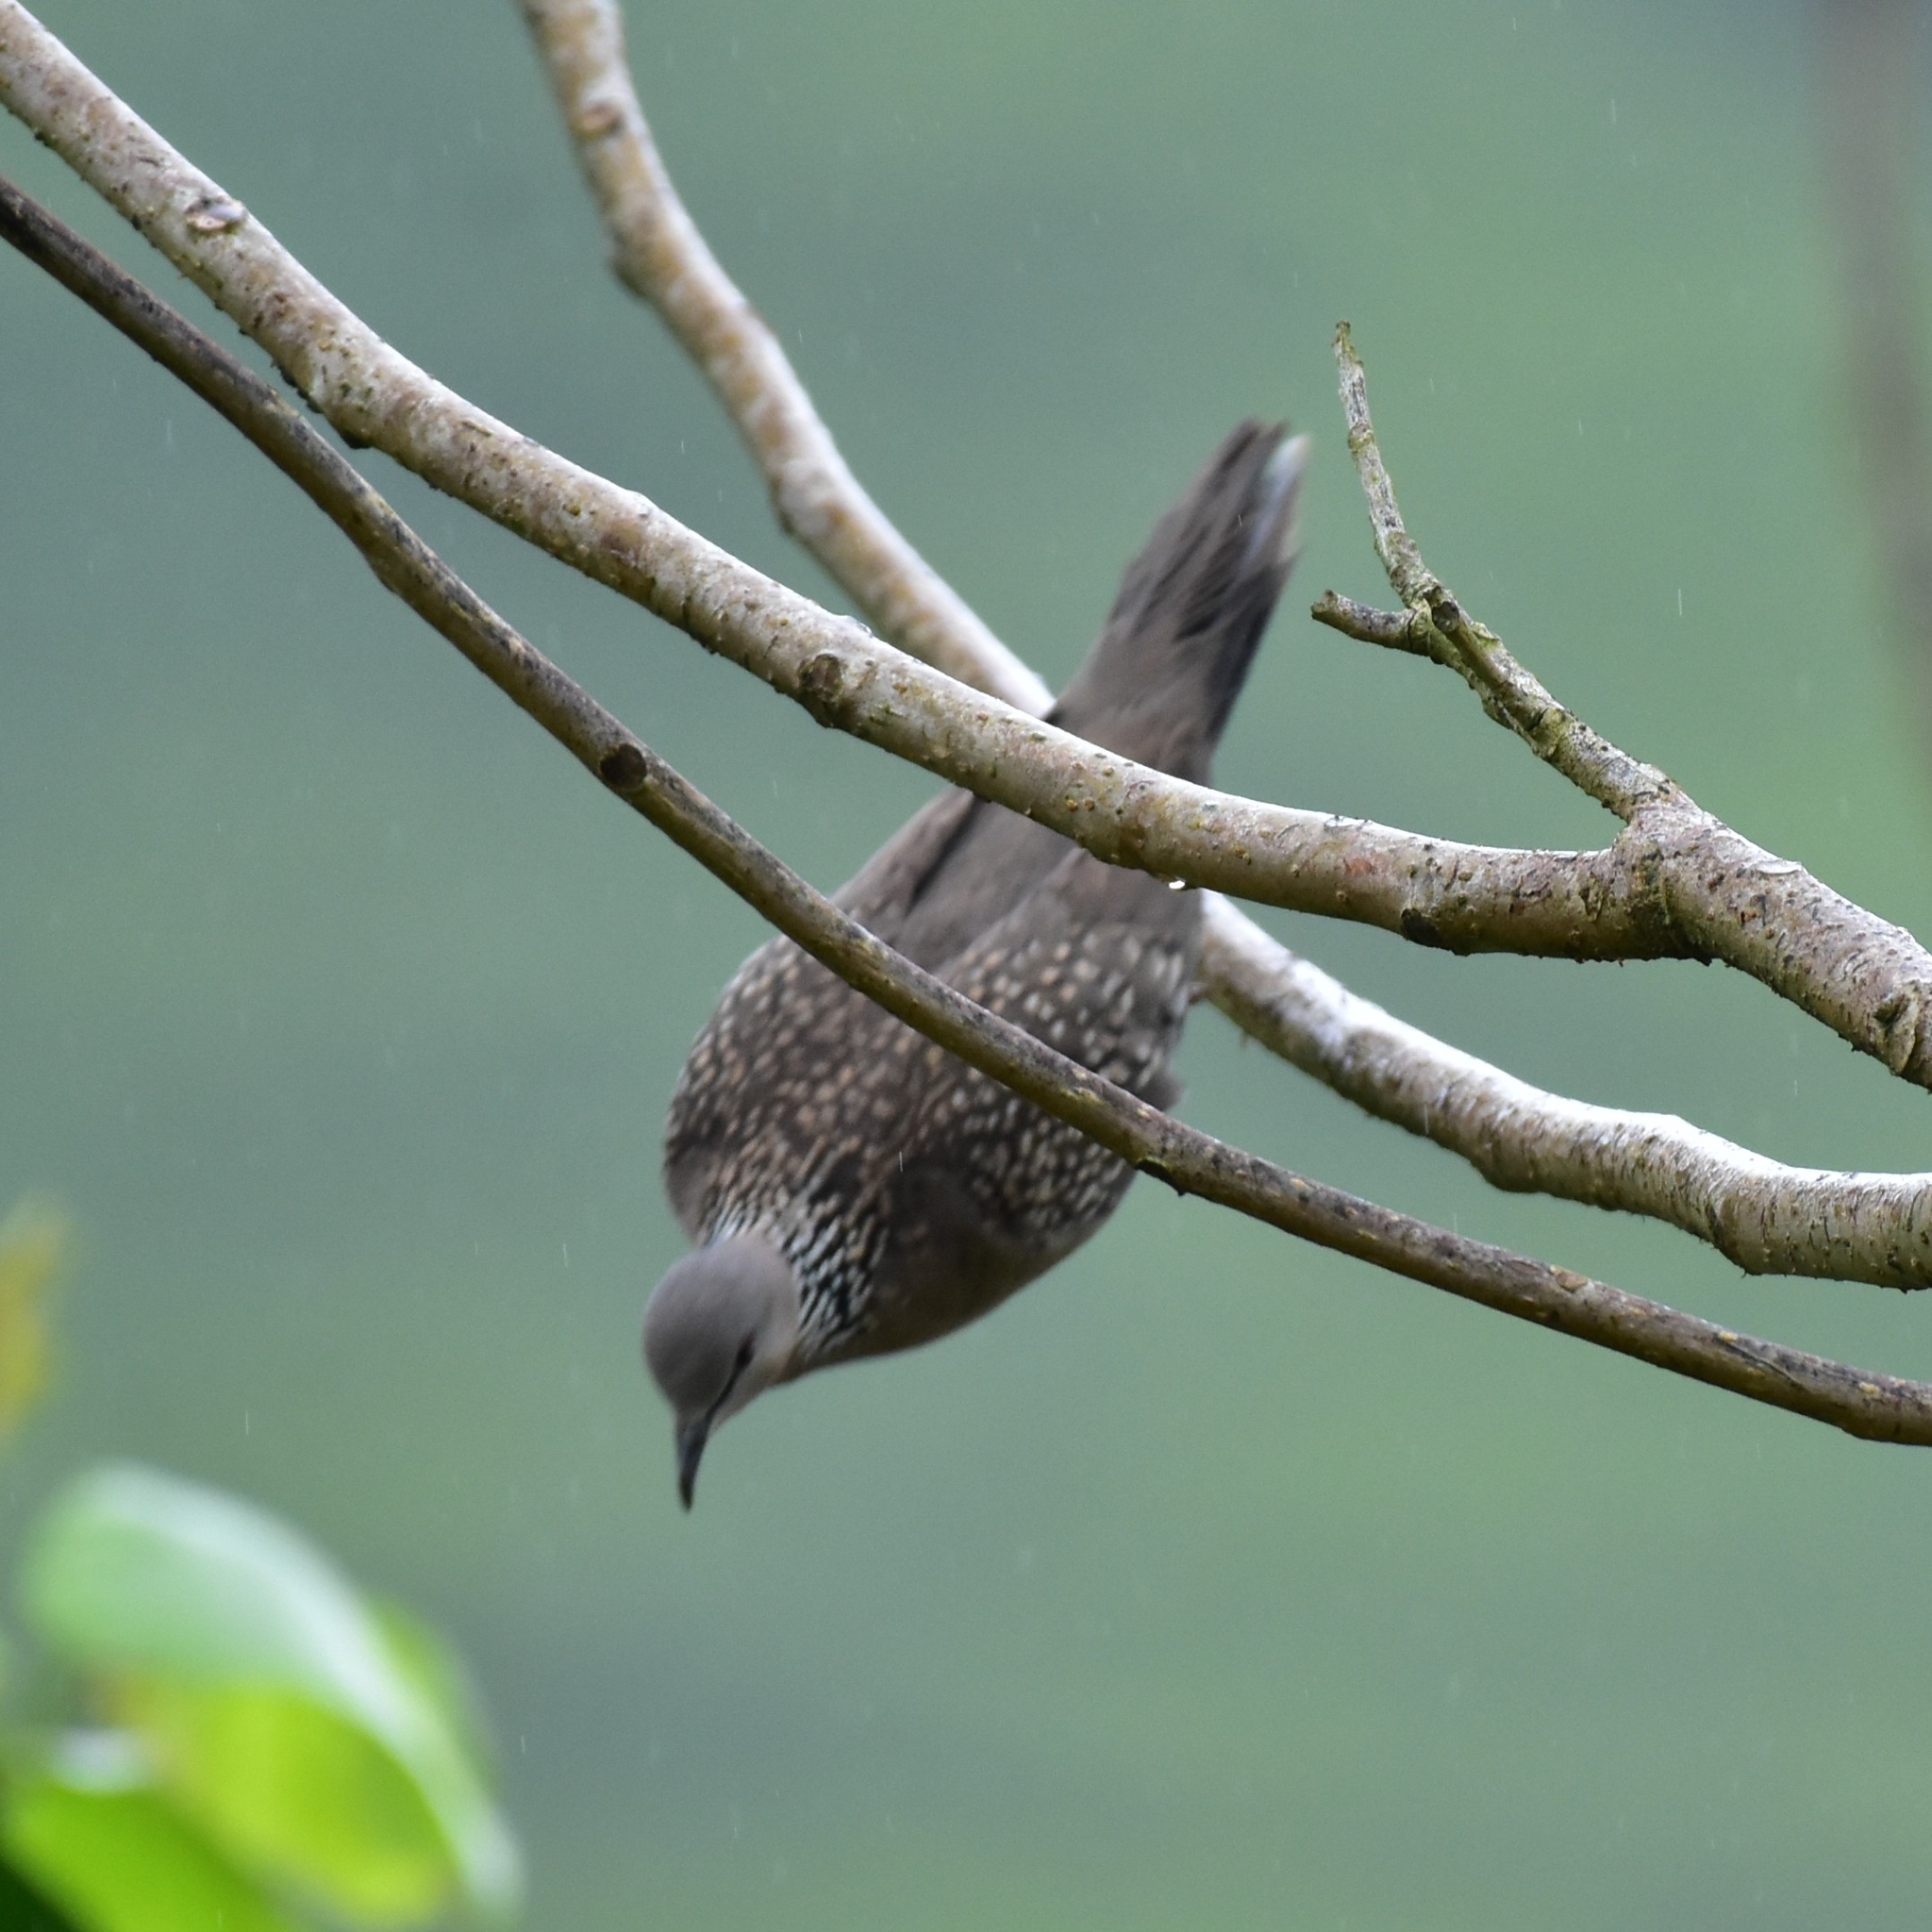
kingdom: Animalia
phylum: Chordata
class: Aves
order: Columbiformes
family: Columbidae
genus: Spilopelia
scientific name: Spilopelia chinensis
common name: Spotted dove
